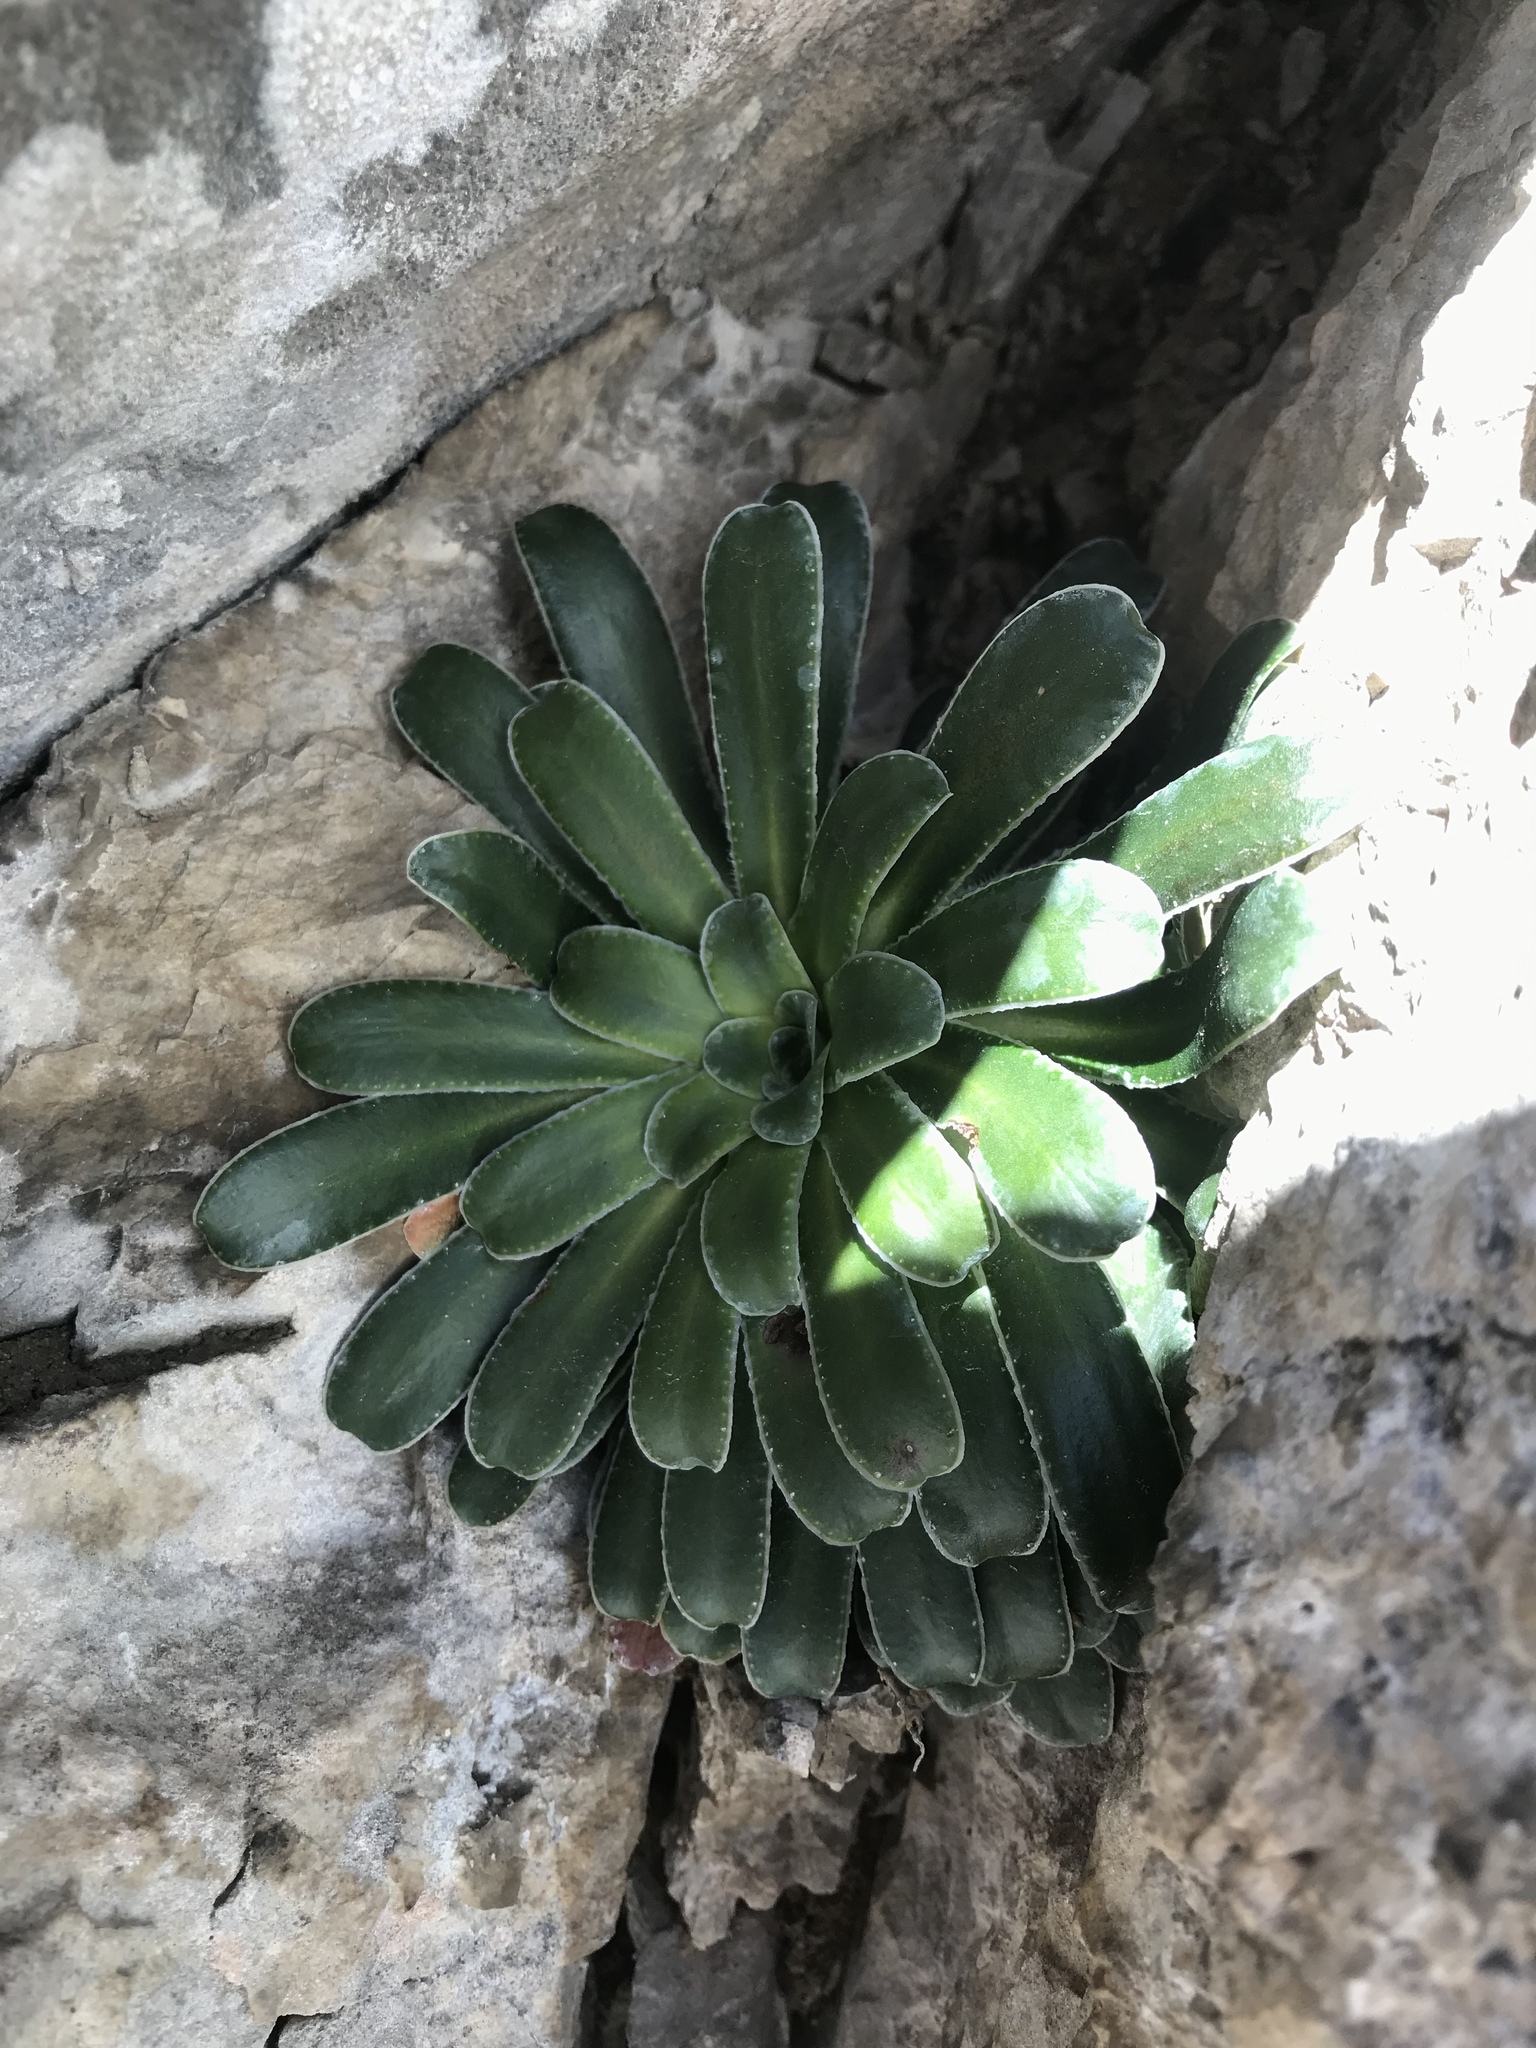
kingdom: Plantae
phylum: Tracheophyta
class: Magnoliopsida
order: Saxifragales
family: Saxifragaceae
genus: Saxifraga
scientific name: Saxifraga mutata
